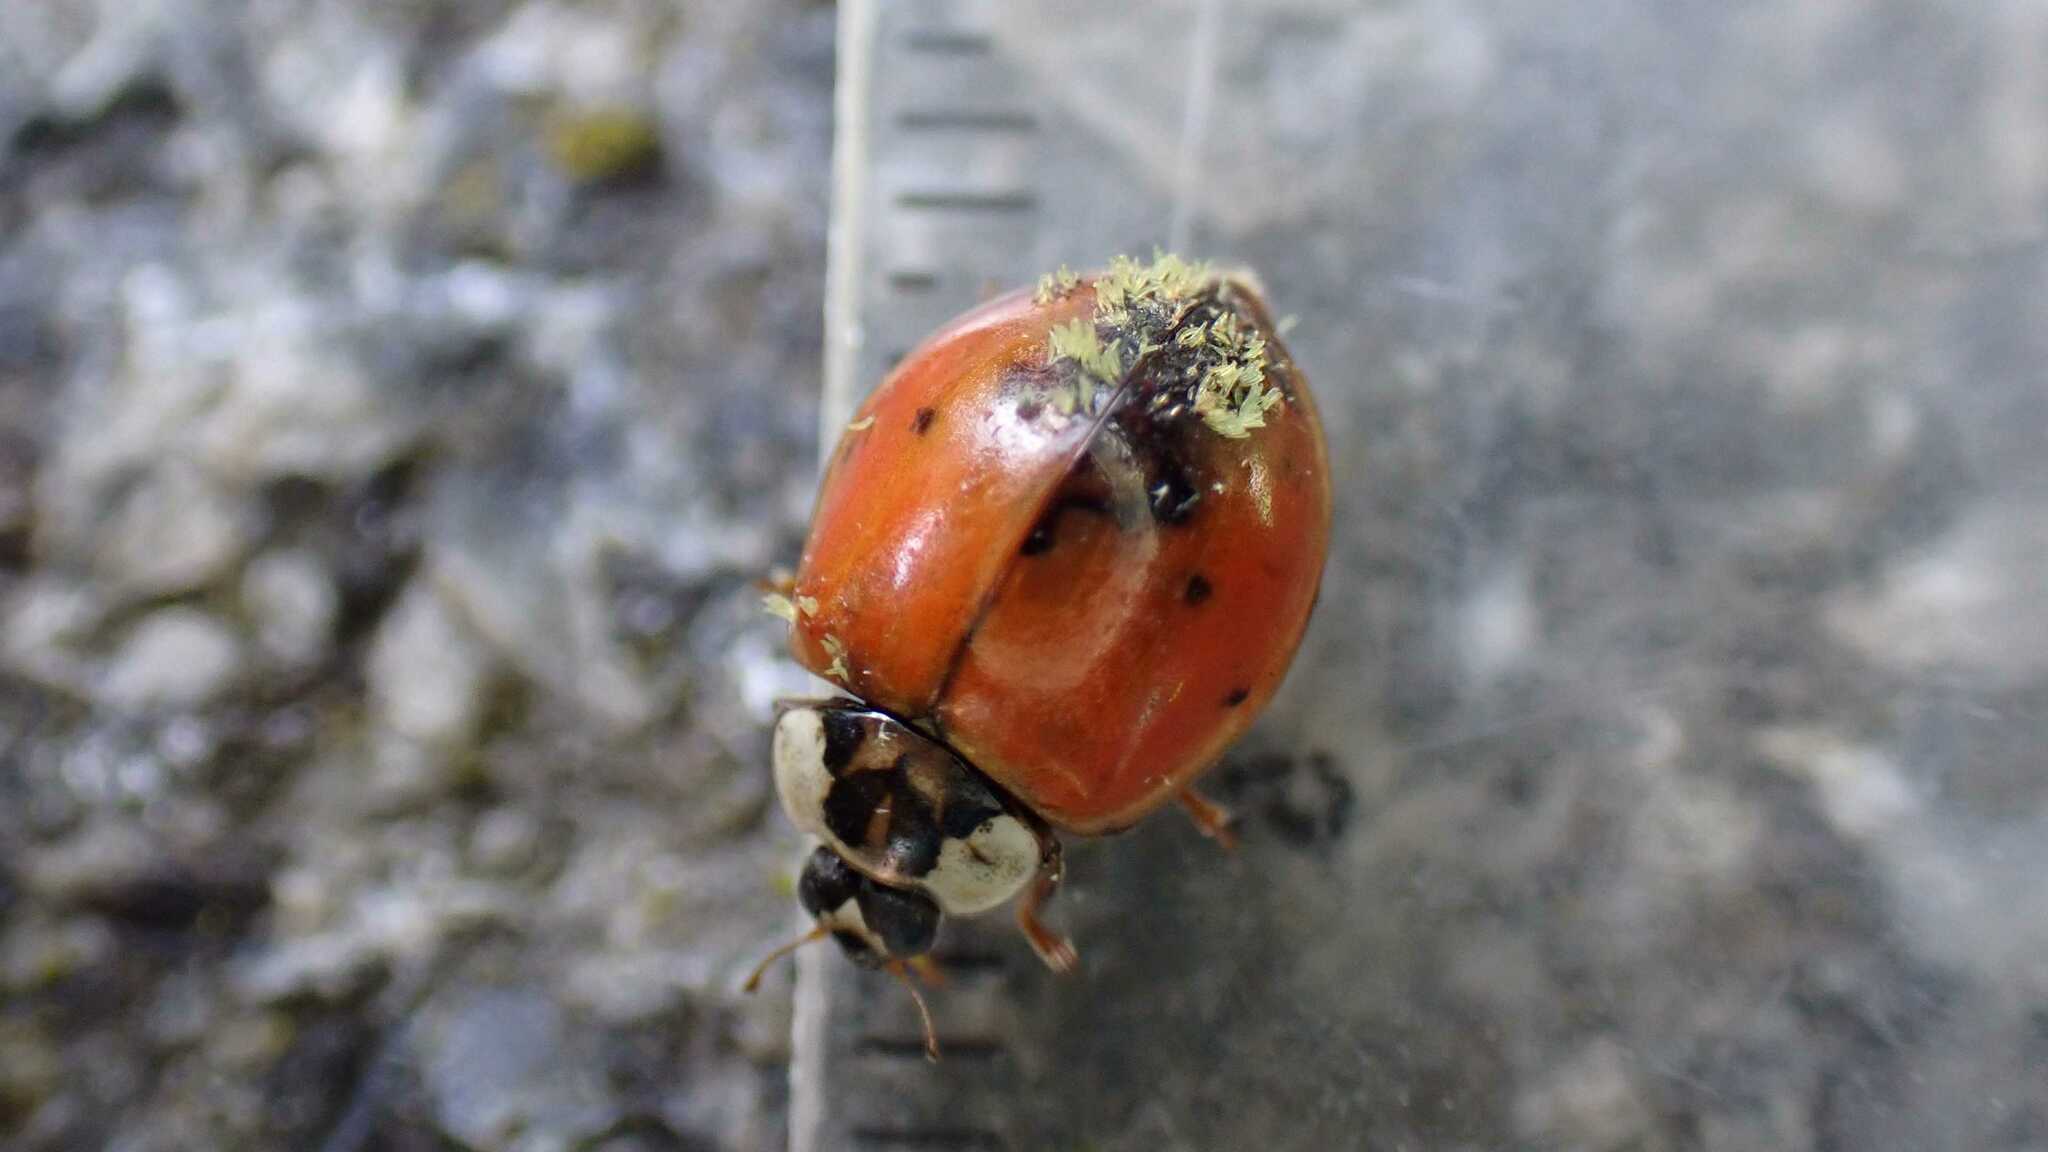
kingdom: Fungi
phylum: Ascomycota
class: Laboulbeniomycetes
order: Laboulbeniales
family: Laboulbeniaceae
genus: Hesperomyces
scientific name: Hesperomyces harmoniae
